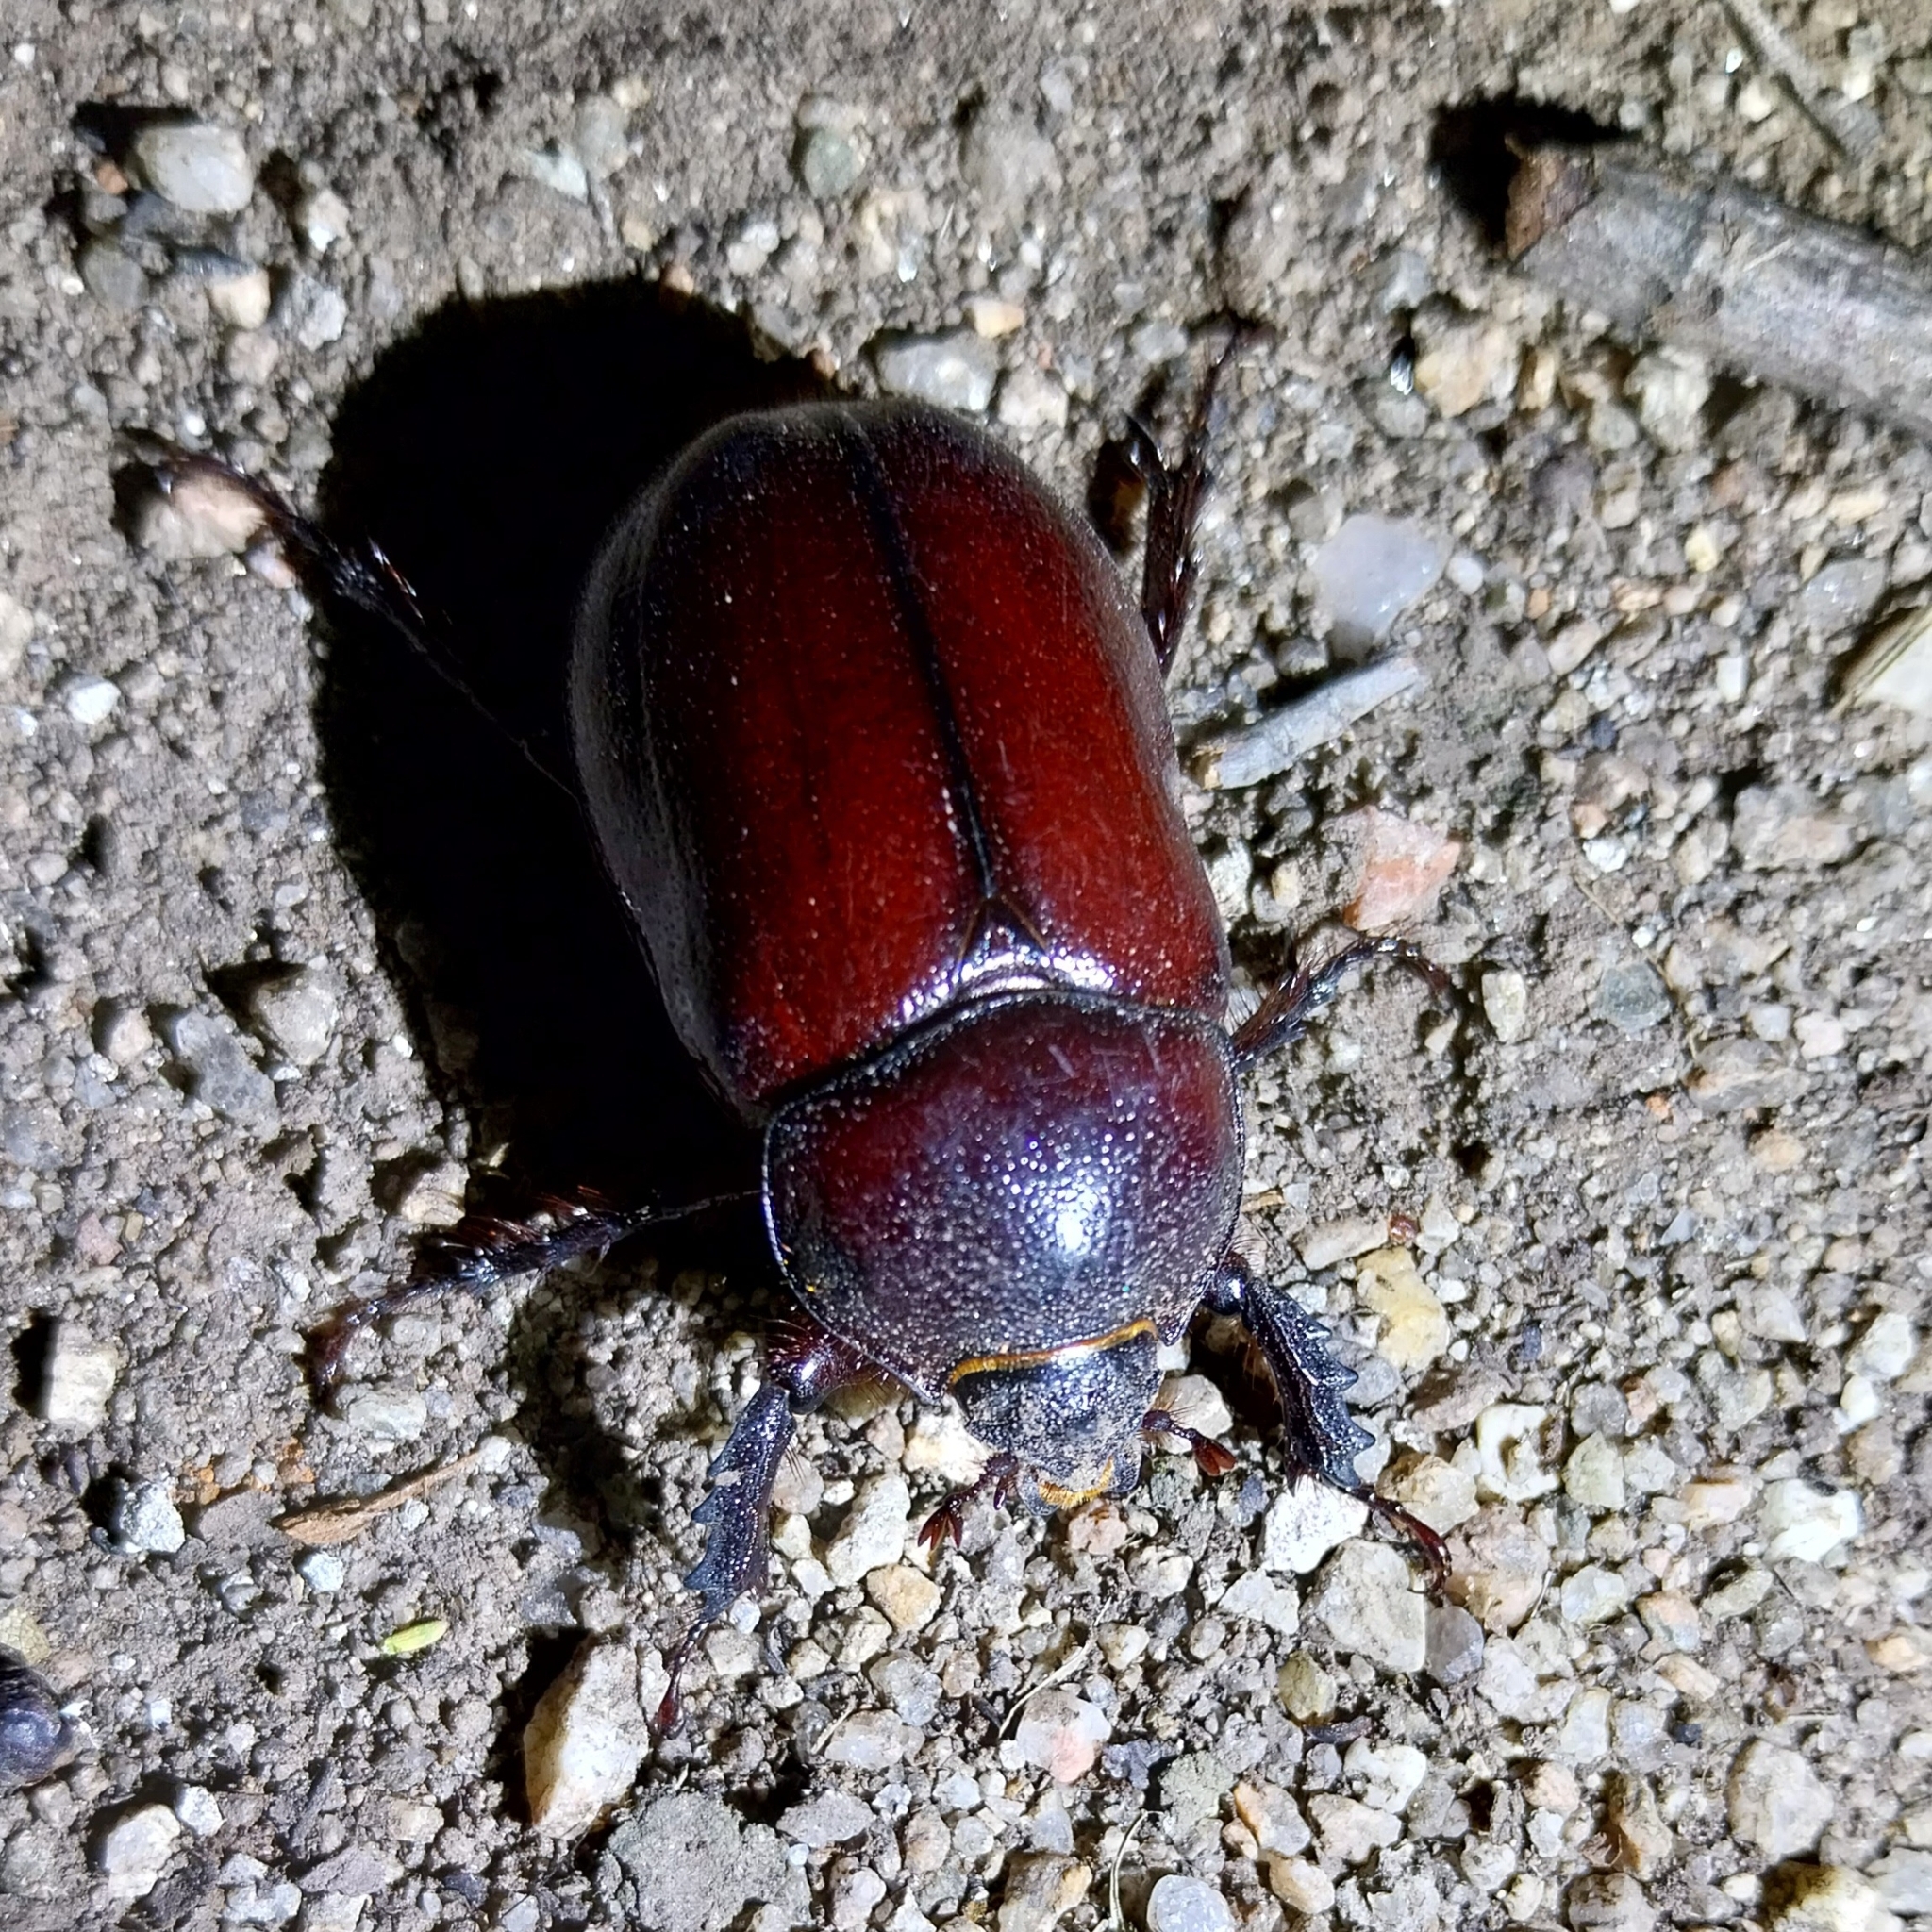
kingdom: Animalia
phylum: Arthropoda
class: Insecta
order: Coleoptera
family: Scarabaeidae
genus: Heterogomphus
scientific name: Heterogomphus inarmatus
